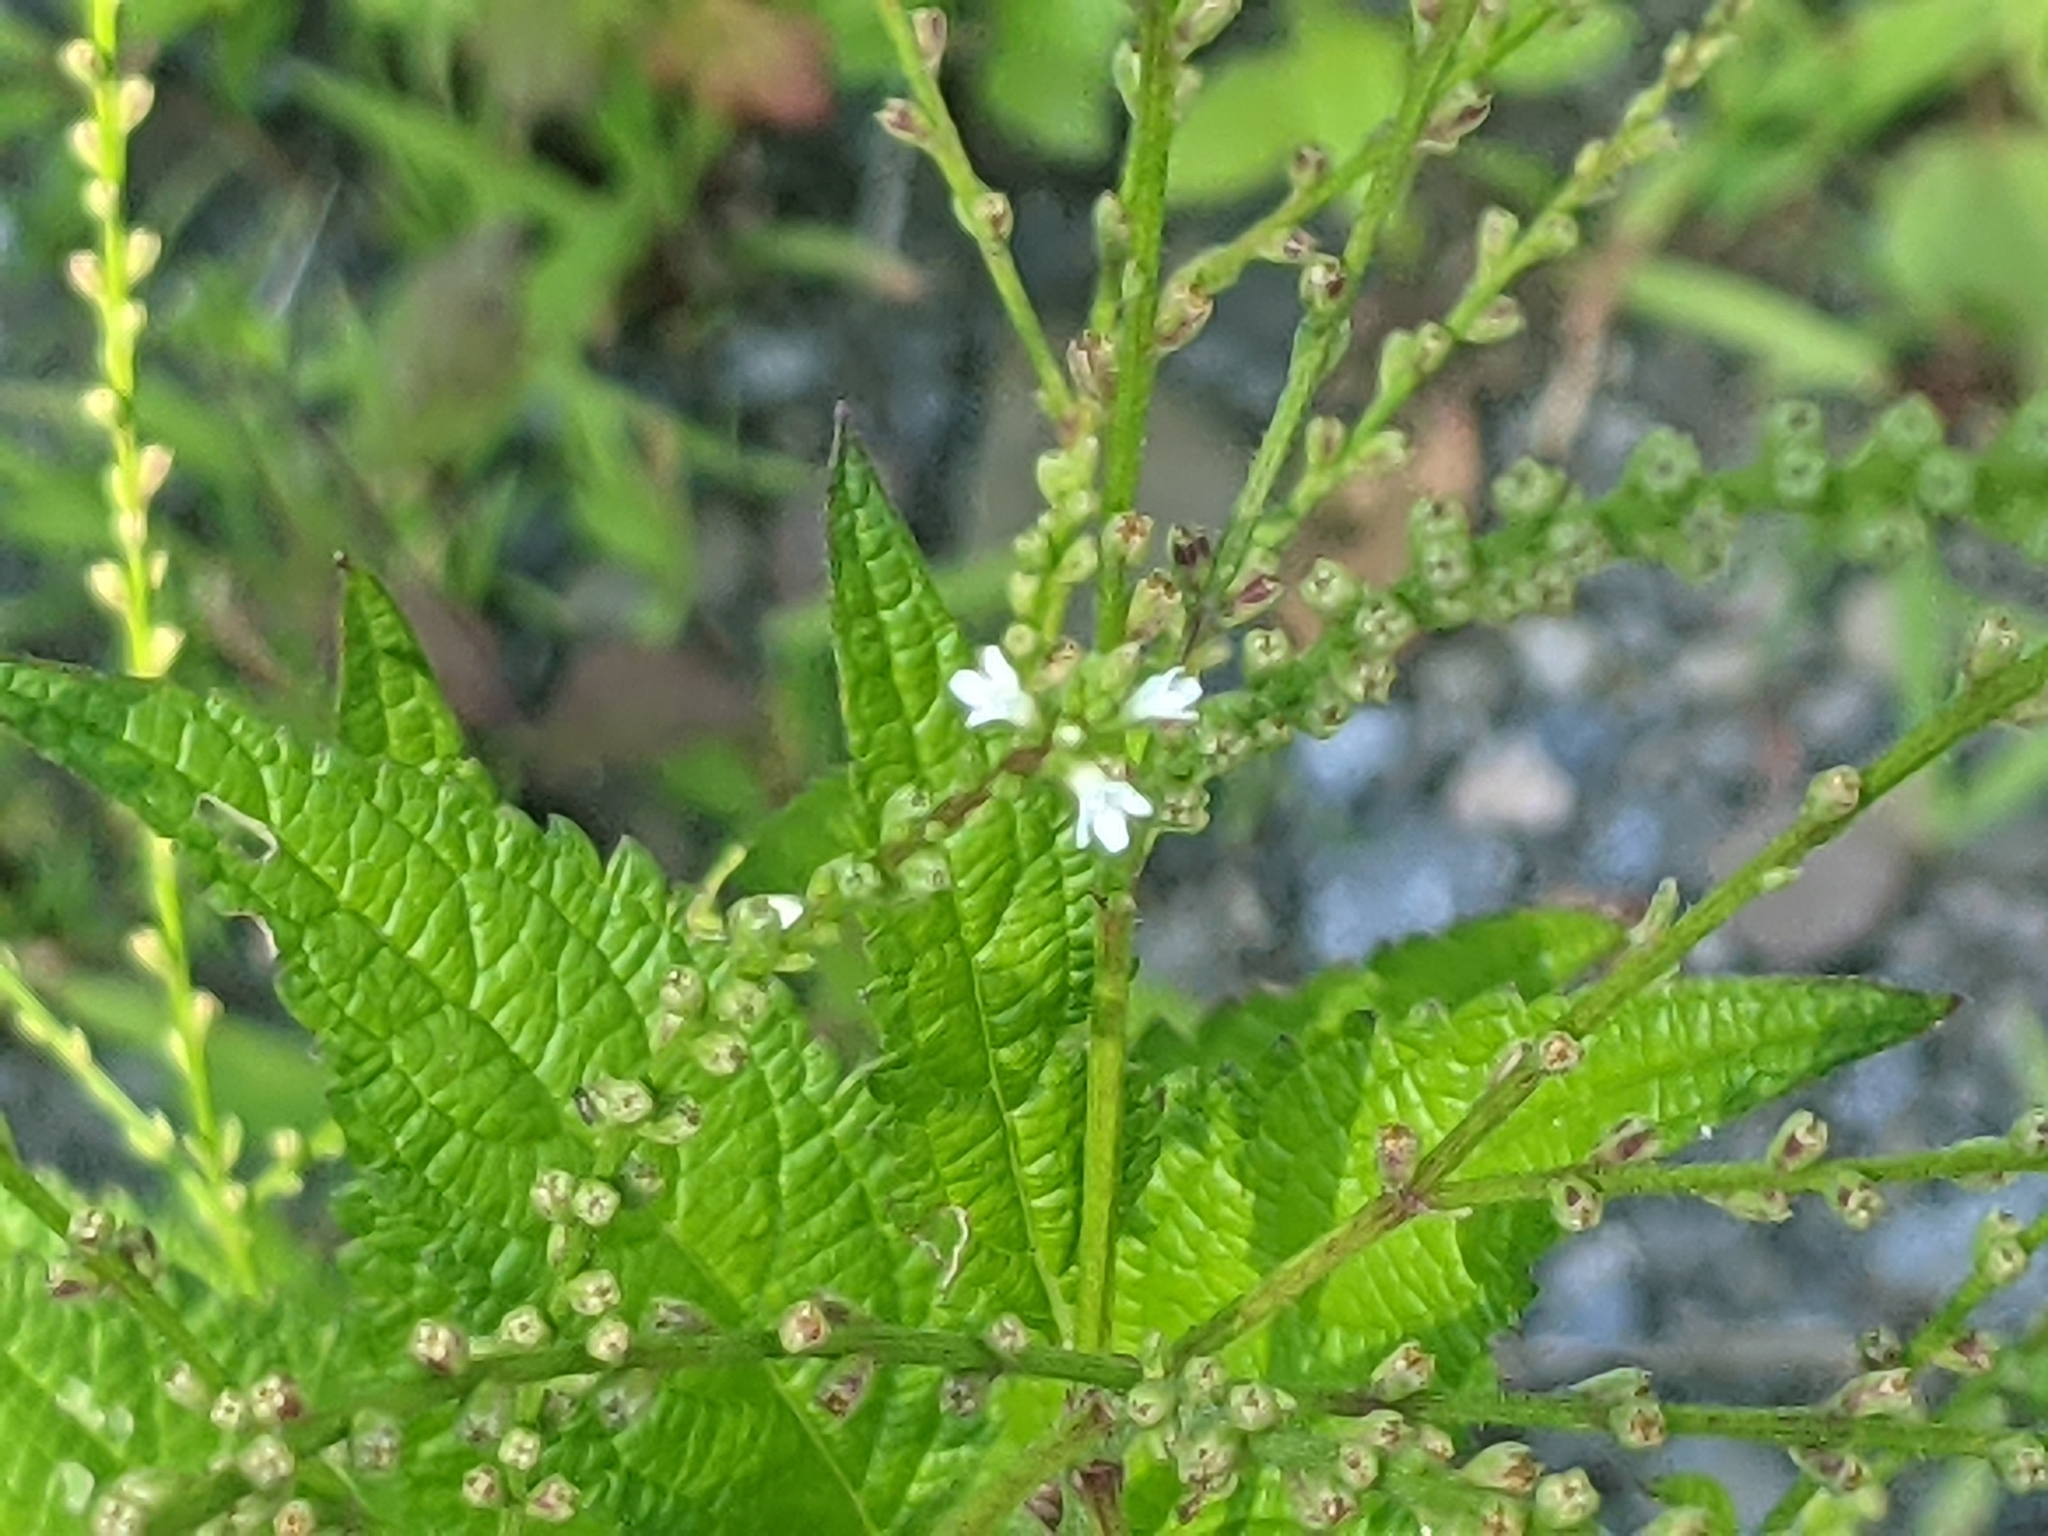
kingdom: Plantae
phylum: Tracheophyta
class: Magnoliopsida
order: Lamiales
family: Verbenaceae
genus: Verbena
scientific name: Verbena urticifolia
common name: Nettle-leaved vervain
